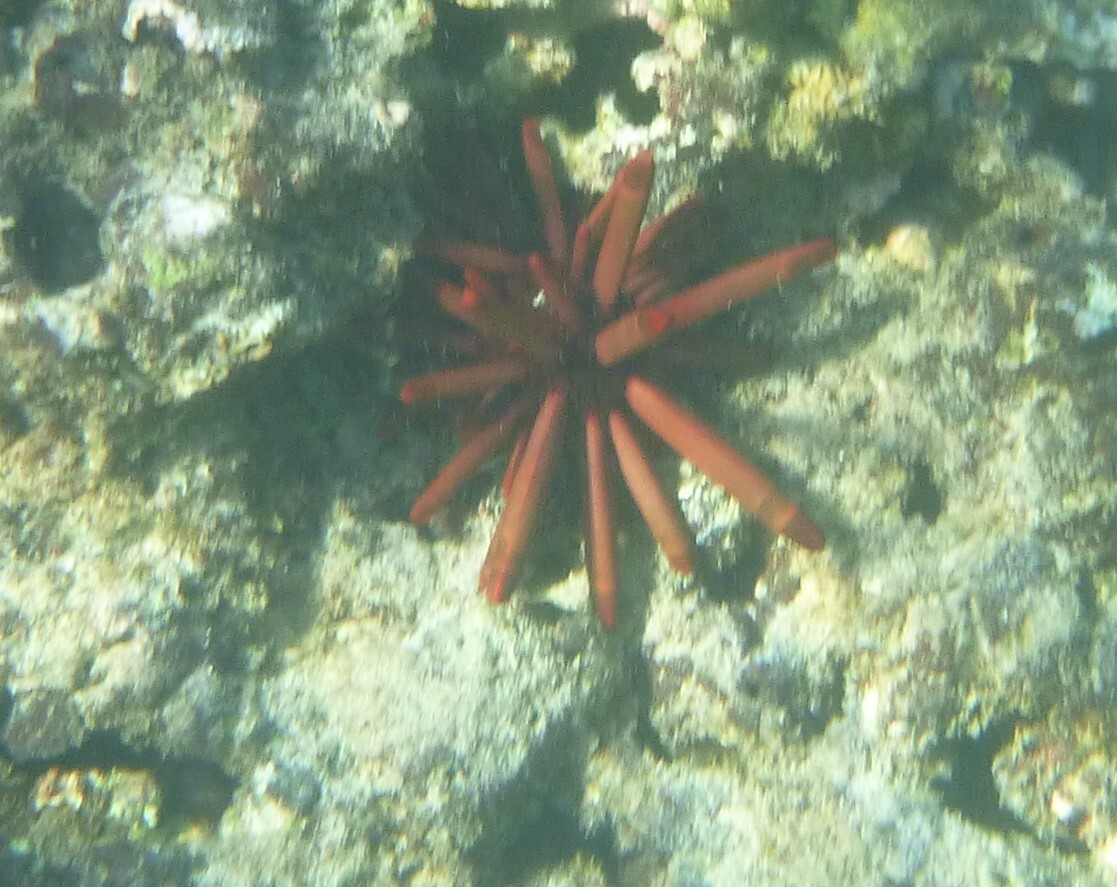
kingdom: Animalia
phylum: Echinodermata
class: Echinoidea
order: Camarodonta
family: Echinometridae
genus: Heterocentrotus
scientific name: Heterocentrotus mamillatus
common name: Slate pencil urchin
